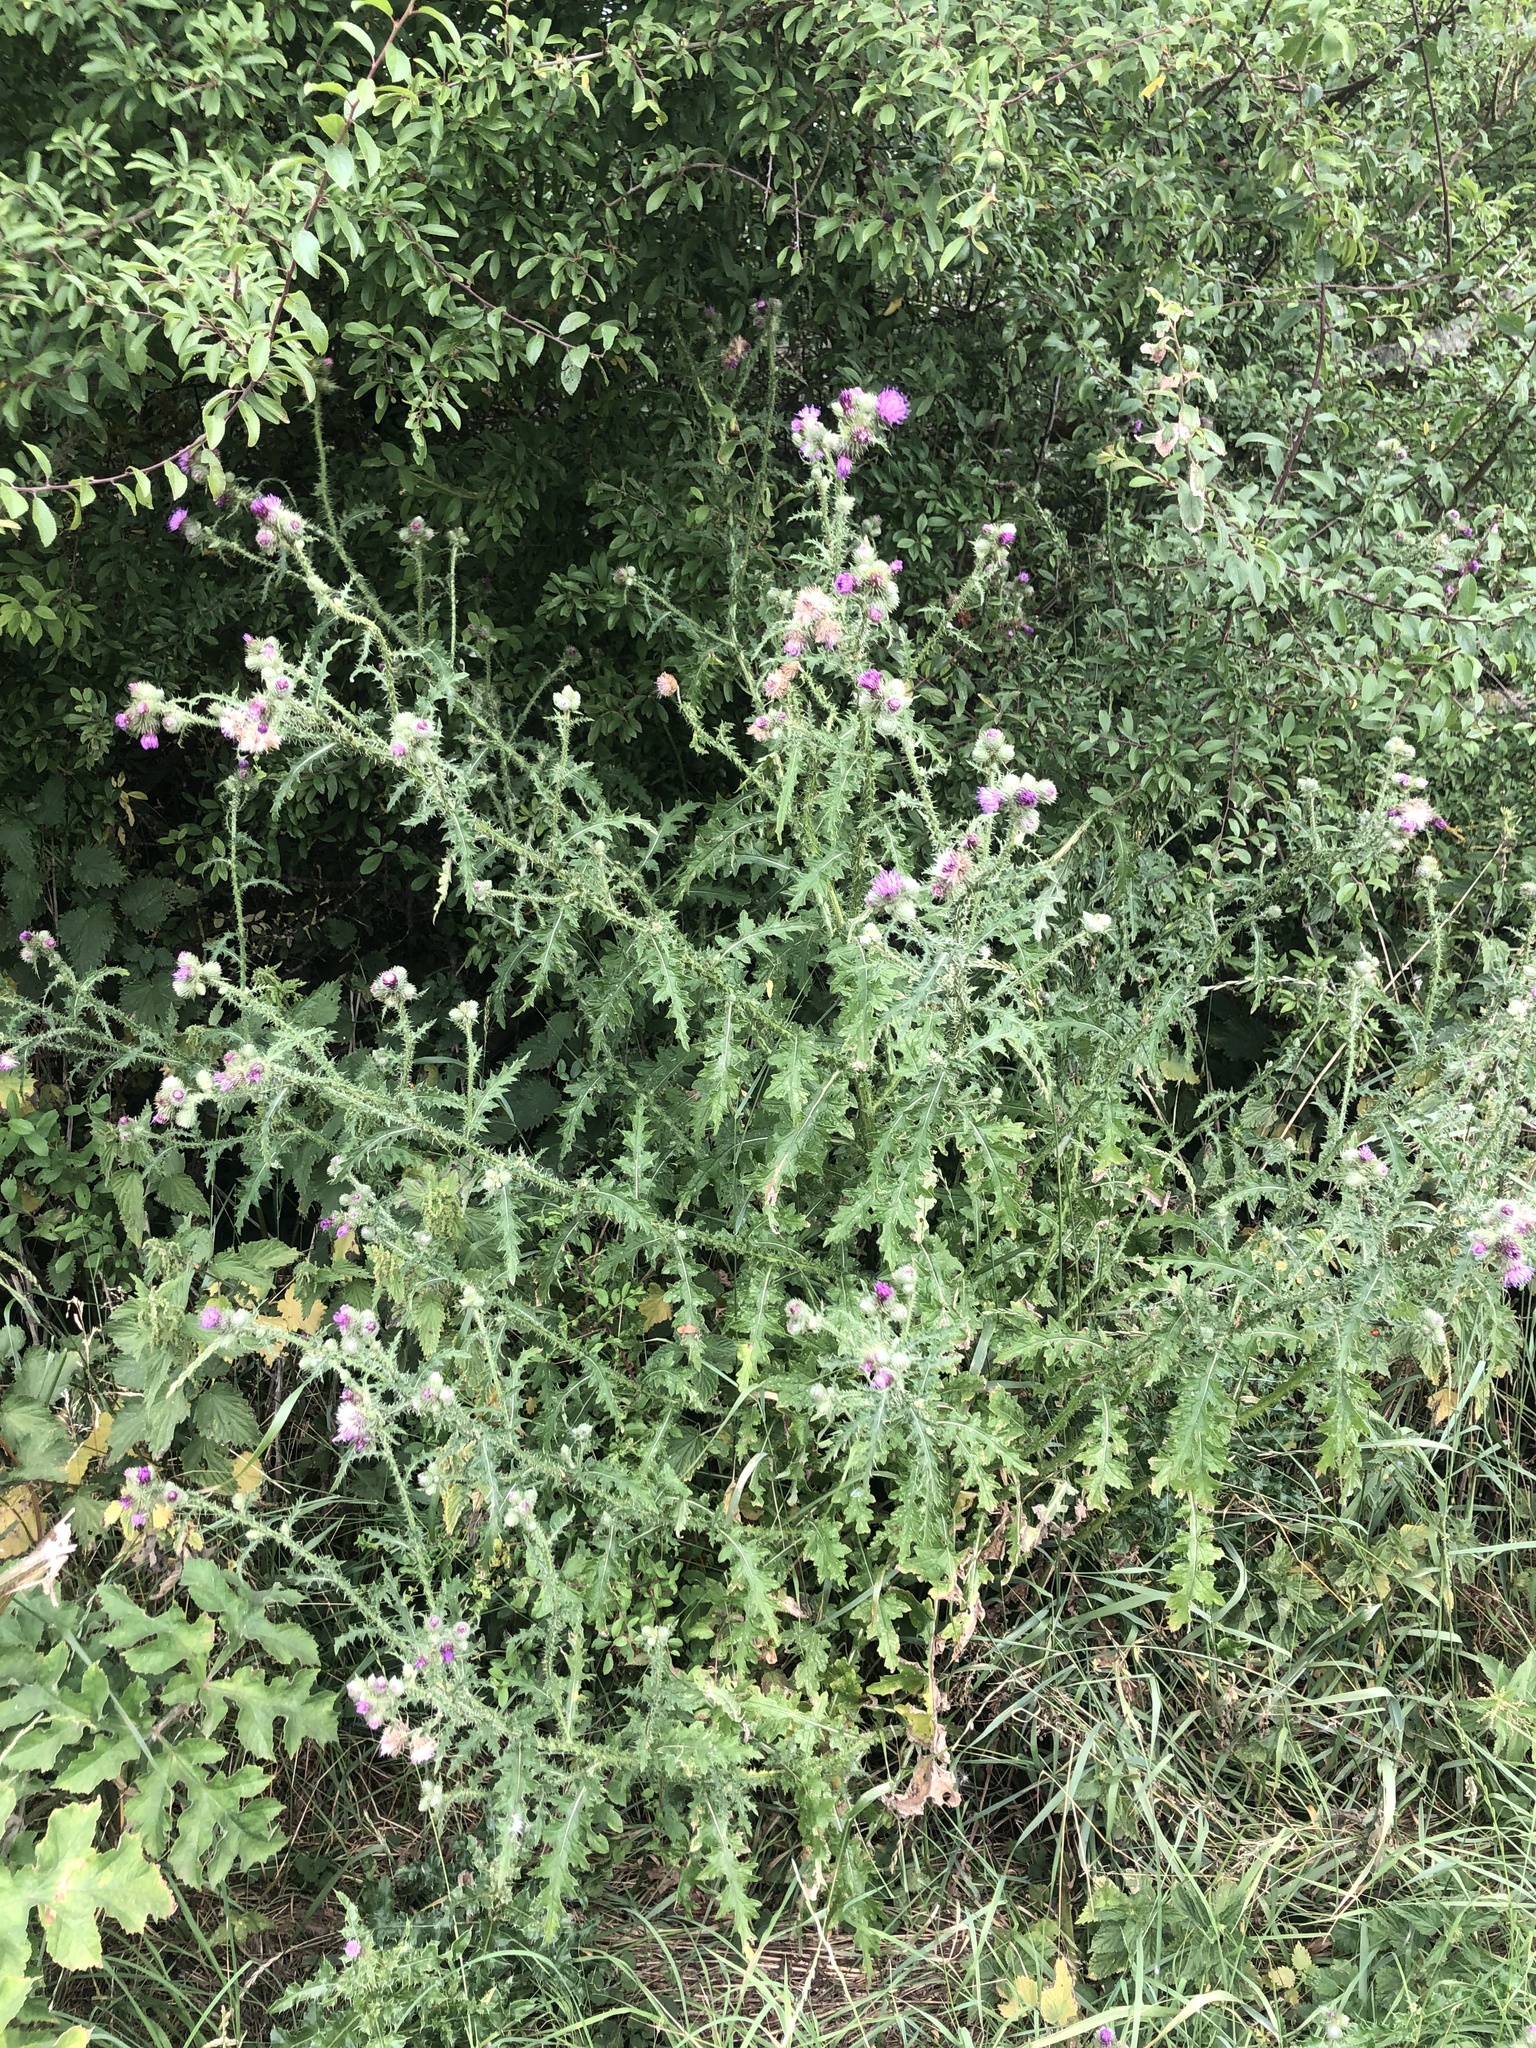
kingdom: Plantae
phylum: Tracheophyta
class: Magnoliopsida
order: Asterales
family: Asteraceae
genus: Carduus
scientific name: Carduus crispus
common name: Welted thistle
